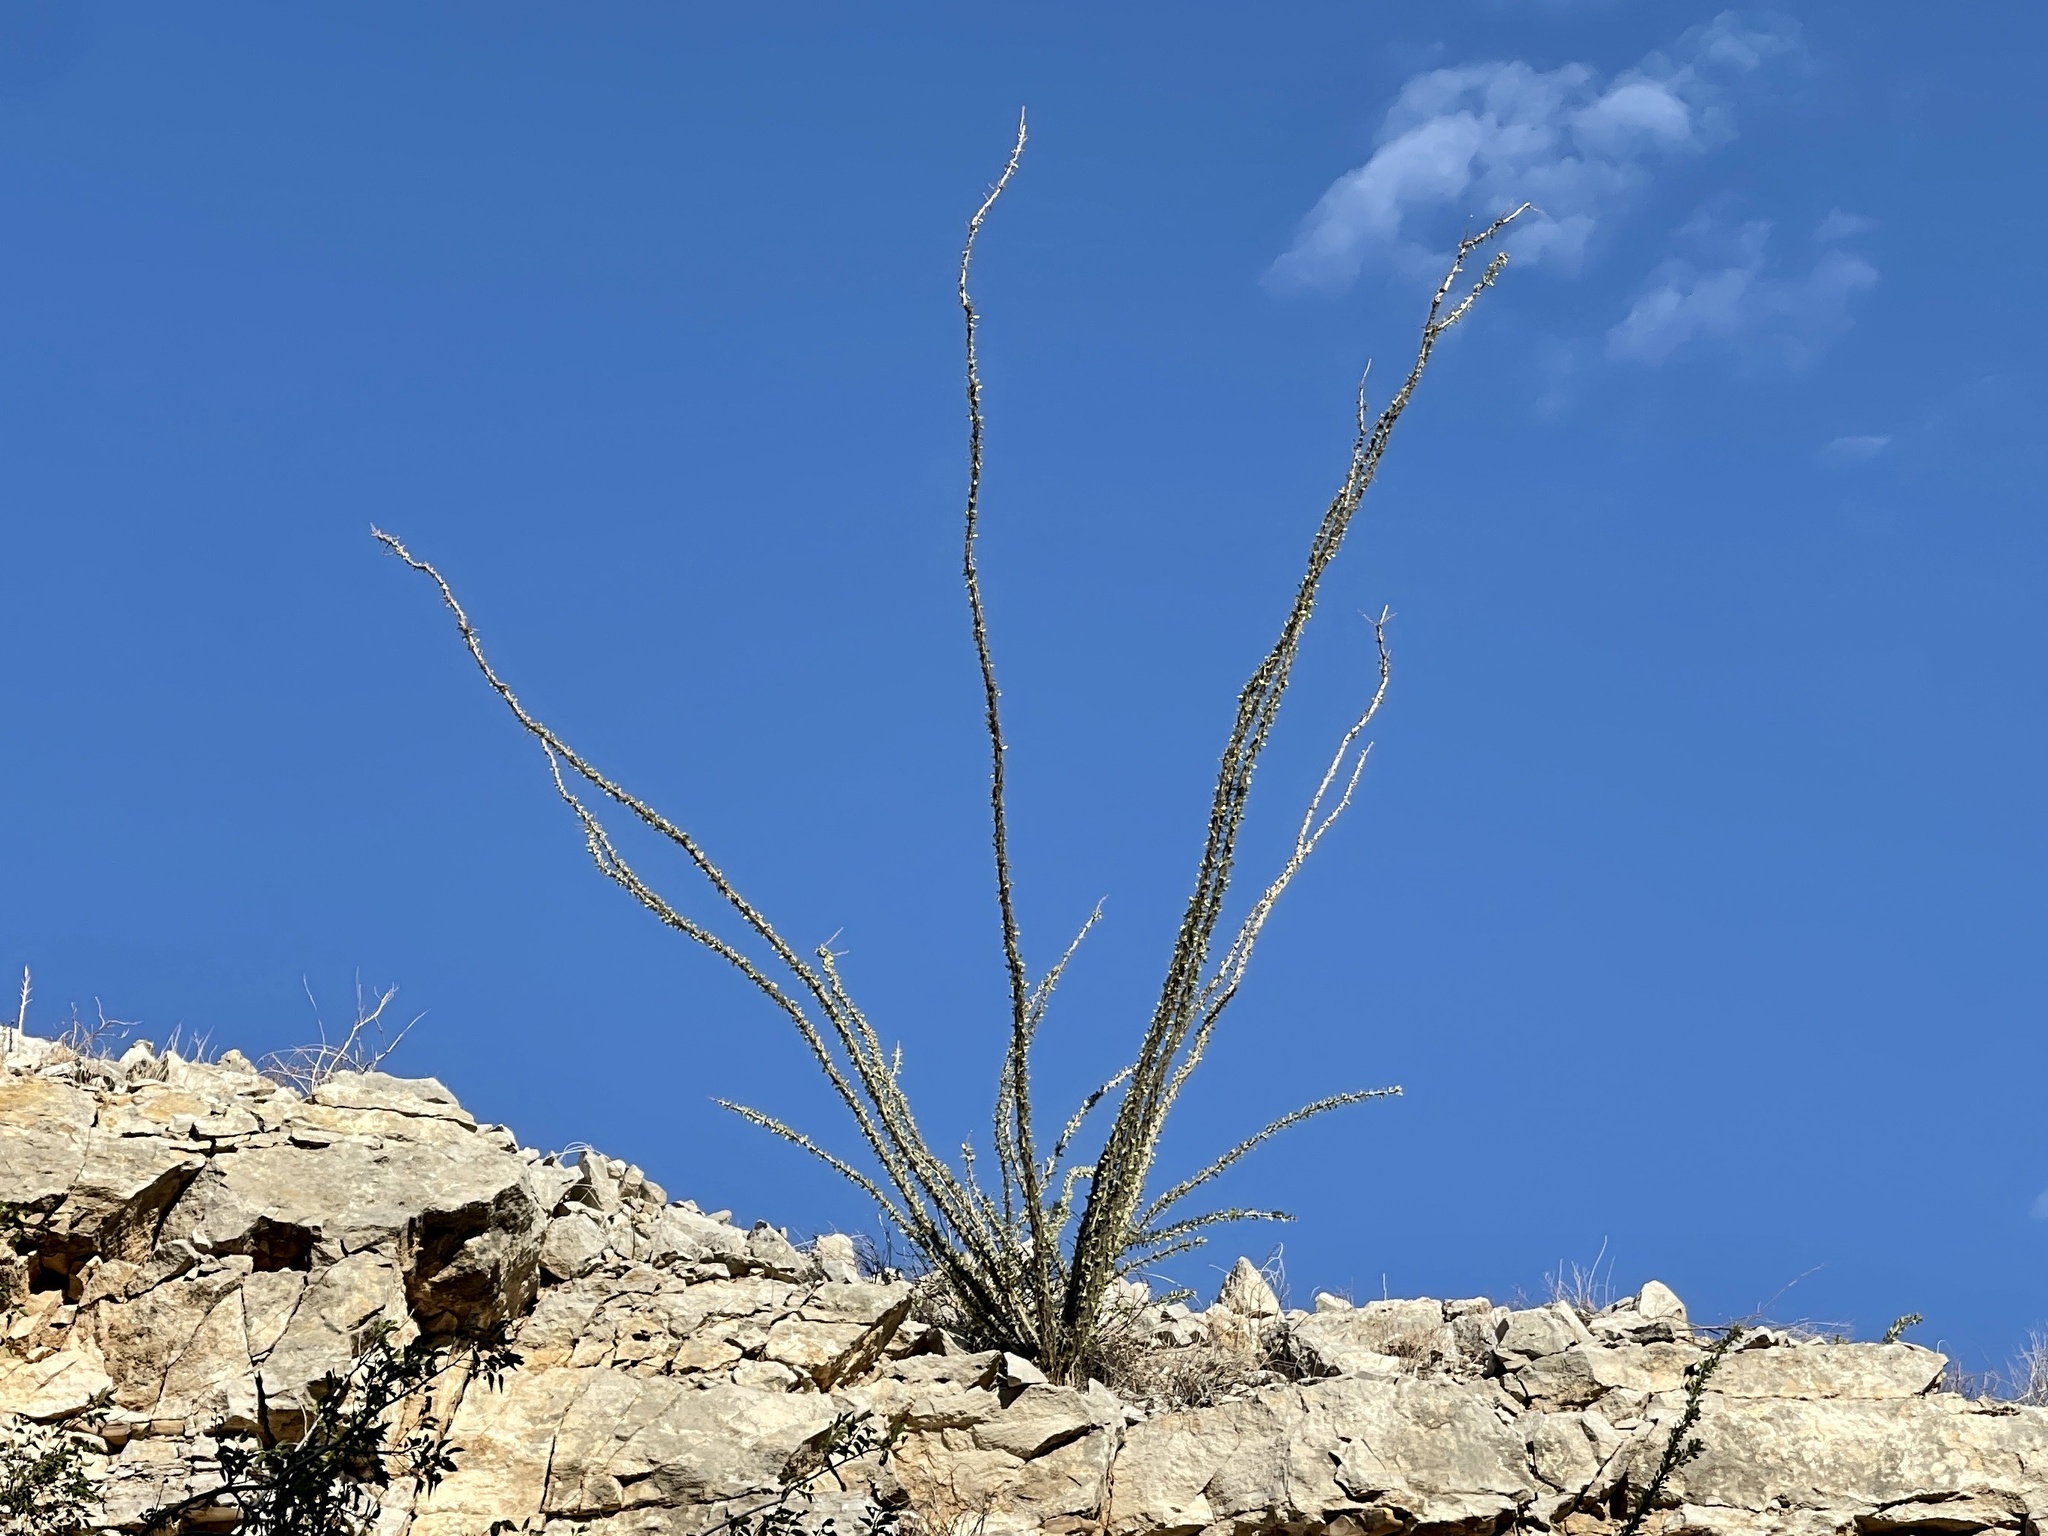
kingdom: Plantae
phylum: Tracheophyta
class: Magnoliopsida
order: Ericales
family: Fouquieriaceae
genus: Fouquieria
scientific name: Fouquieria splendens
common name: Vine-cactus
